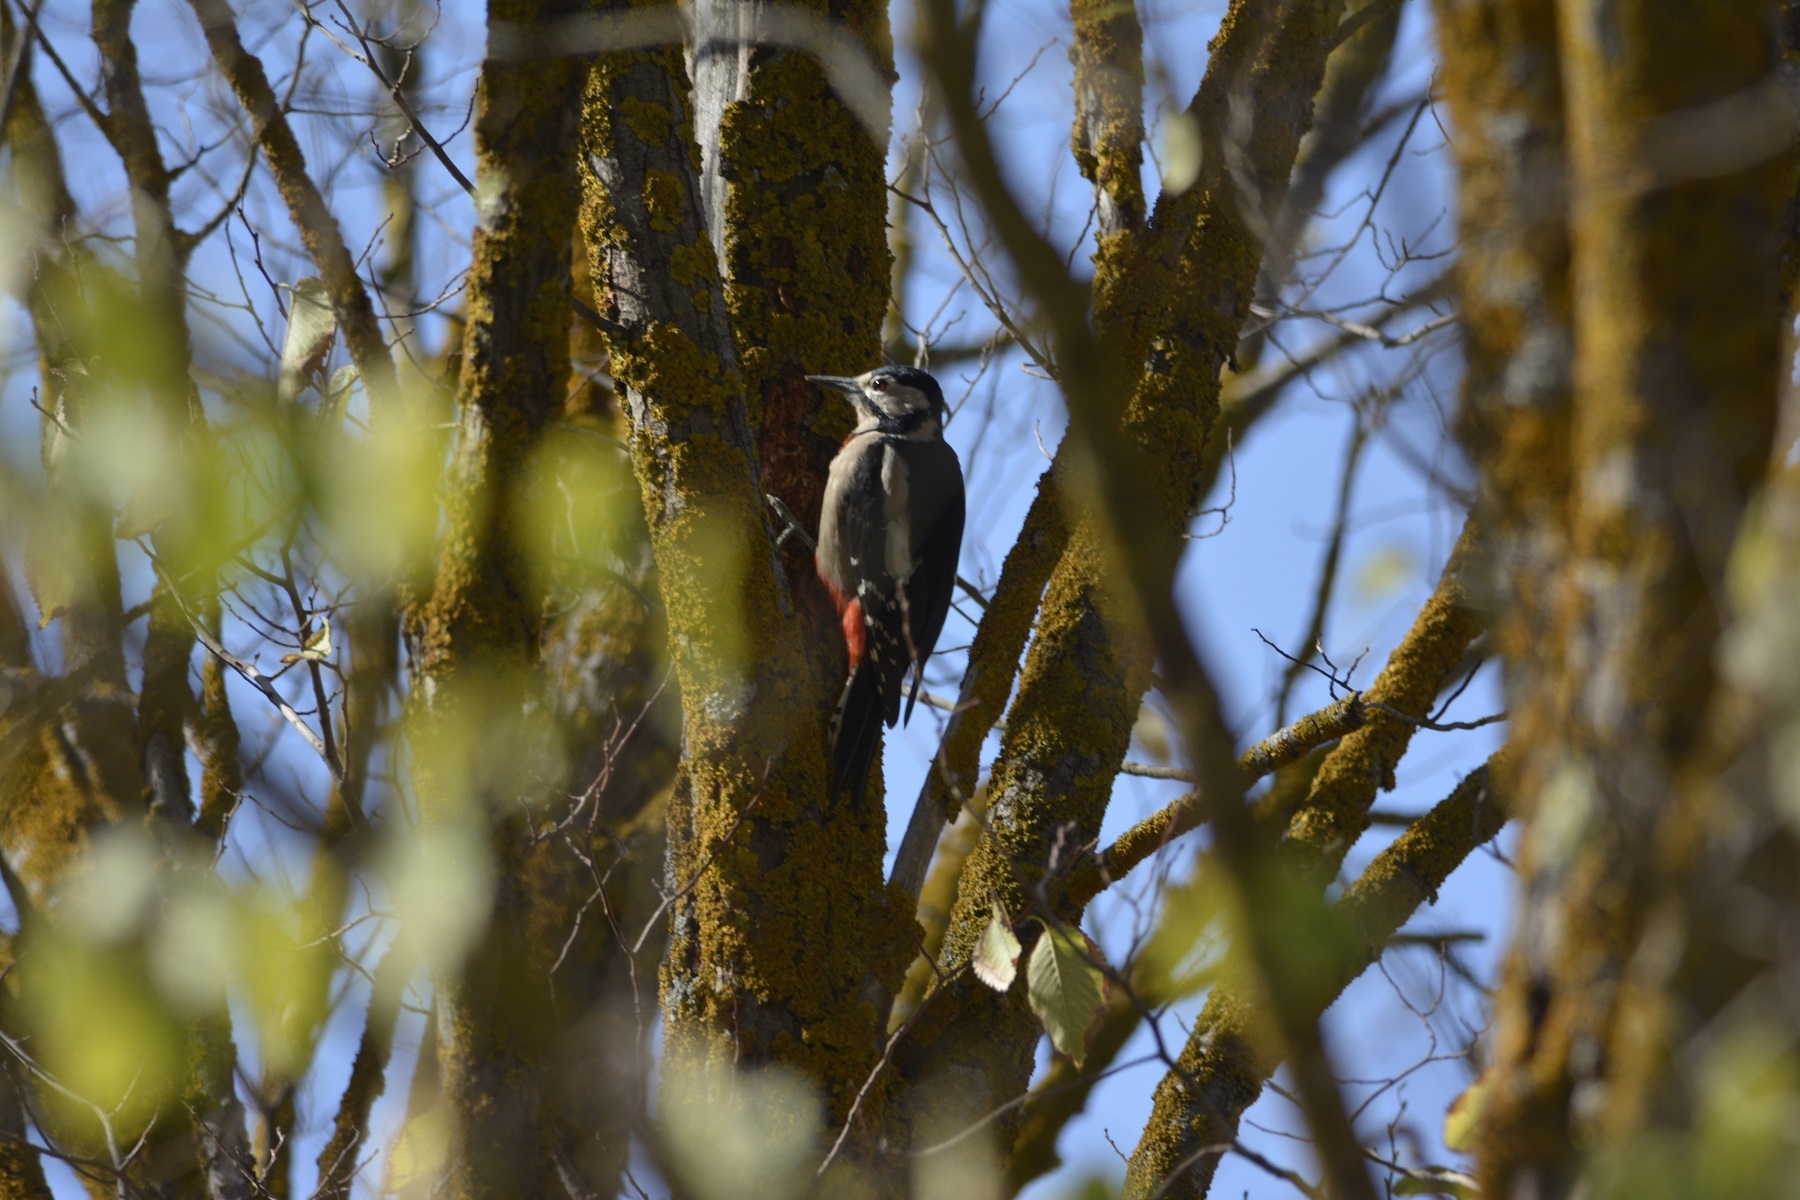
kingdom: Animalia
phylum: Chordata
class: Aves
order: Piciformes
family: Picidae
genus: Dendrocopos
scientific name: Dendrocopos major
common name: Great spotted woodpecker
